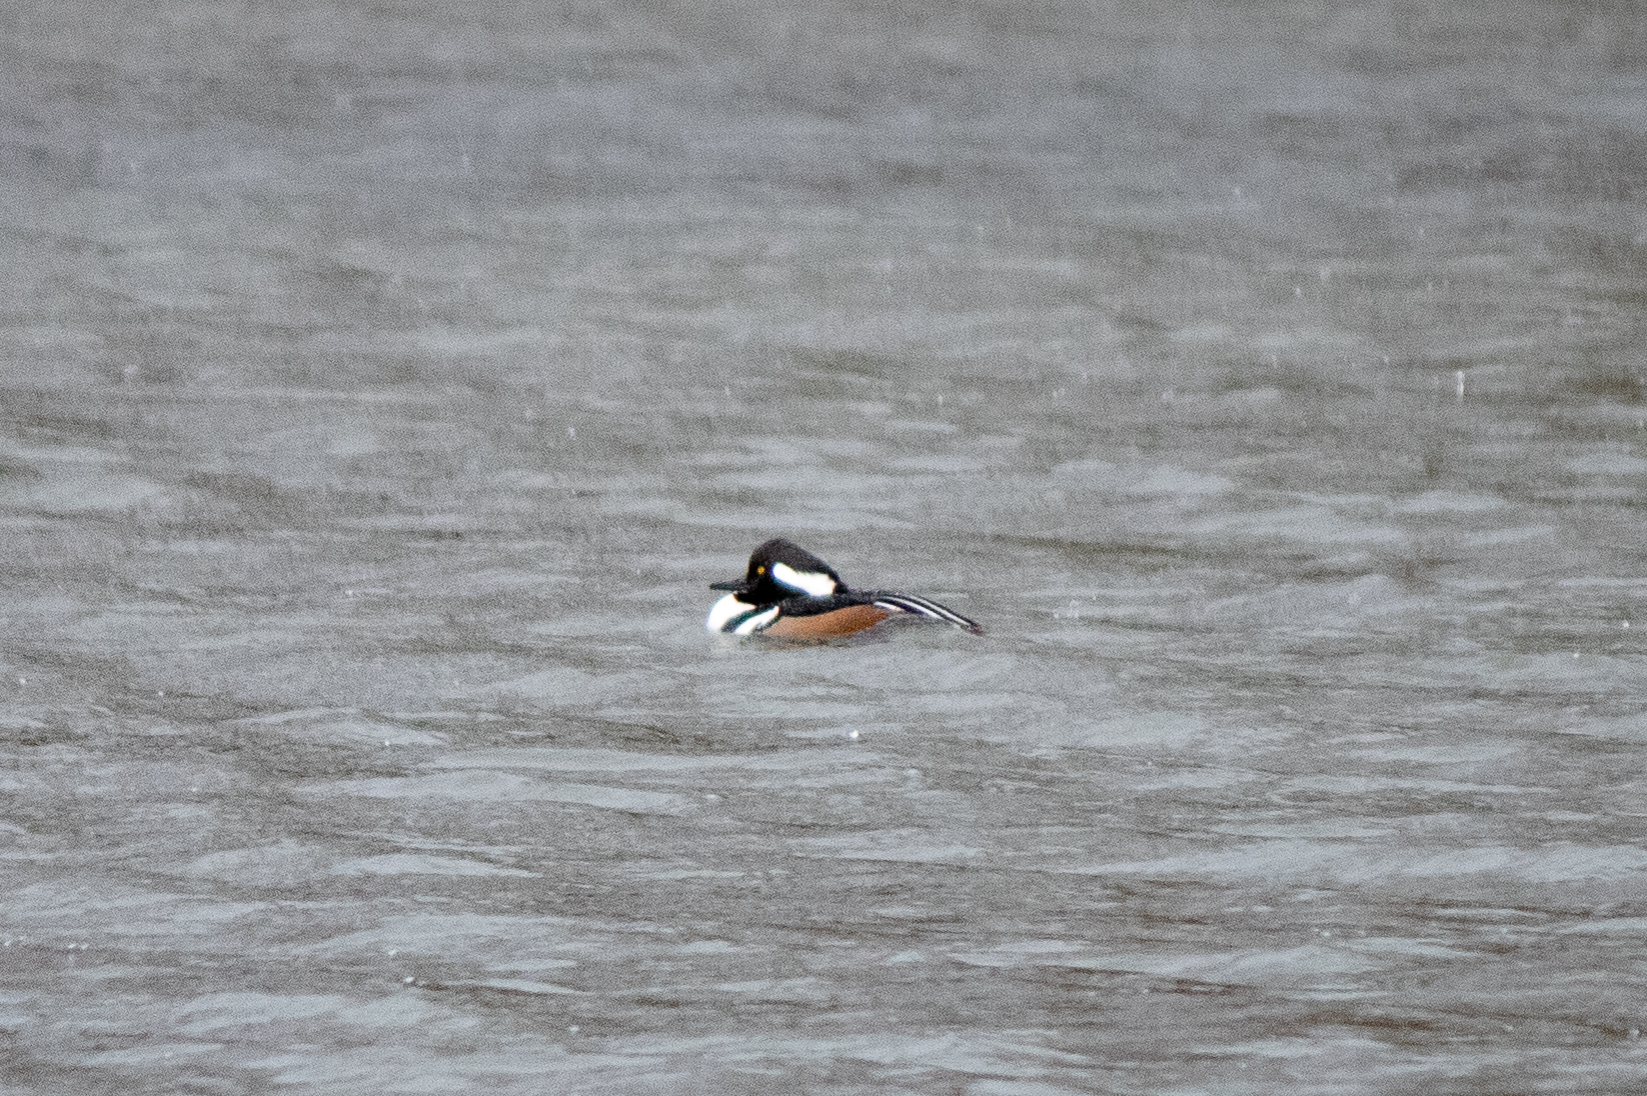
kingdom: Animalia
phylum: Chordata
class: Aves
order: Anseriformes
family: Anatidae
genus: Lophodytes
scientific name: Lophodytes cucullatus
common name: Hooded merganser
